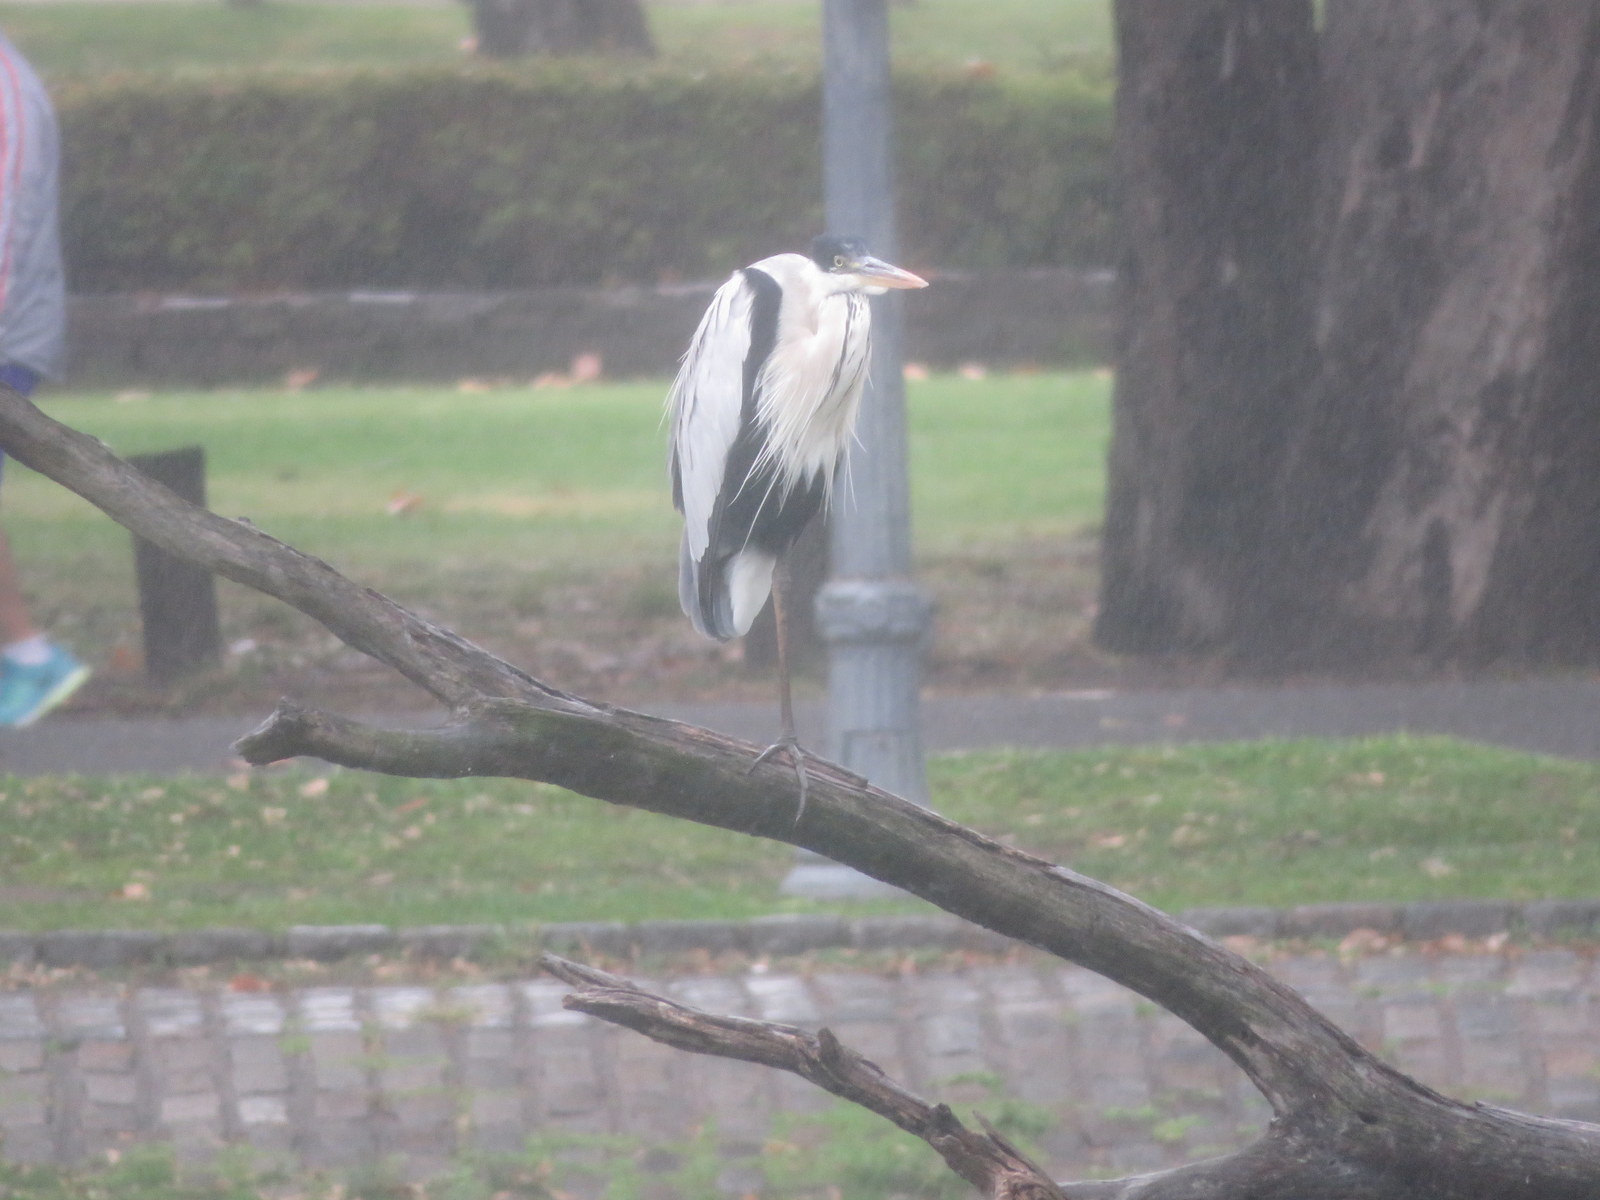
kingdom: Animalia
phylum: Chordata
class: Aves
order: Pelecaniformes
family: Ardeidae
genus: Ardea
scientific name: Ardea cocoi
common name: Cocoi heron
